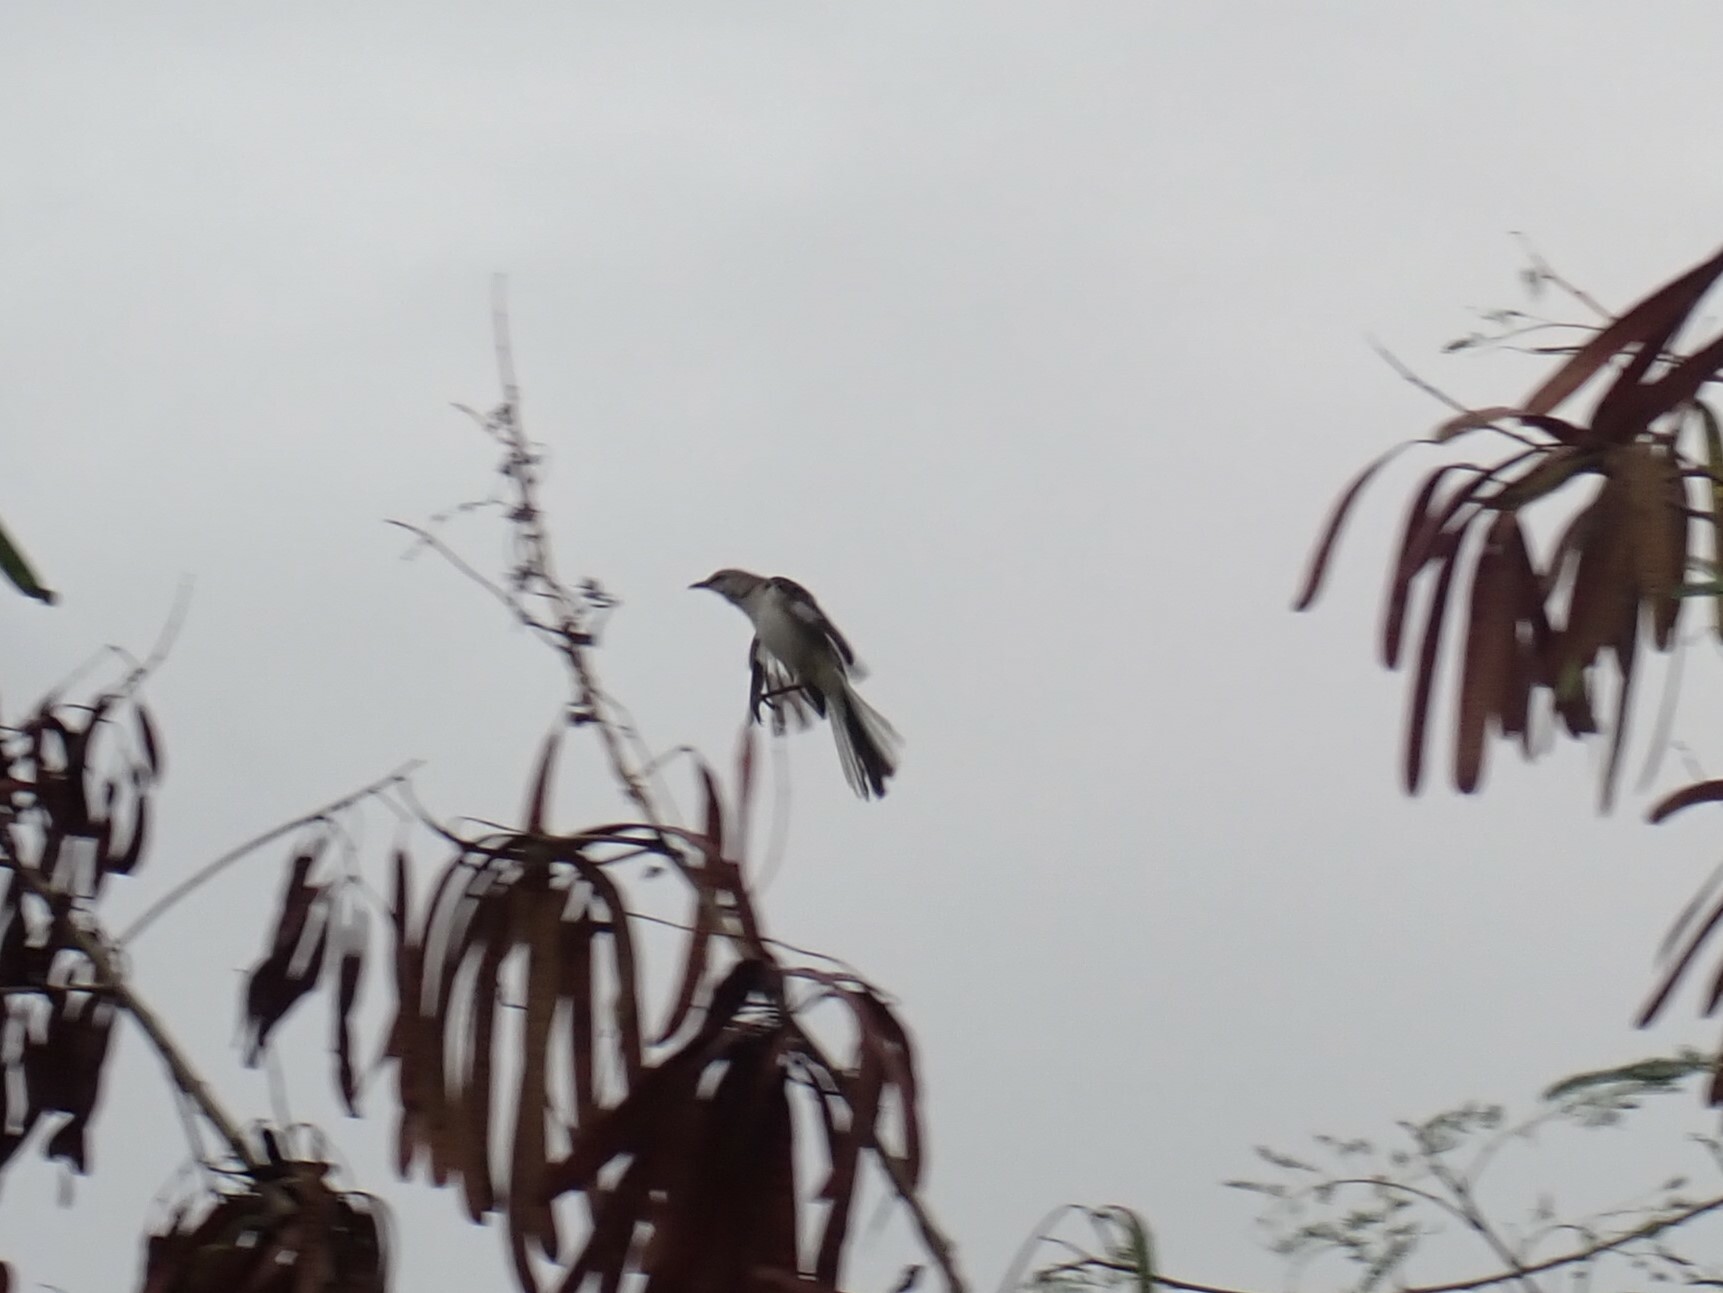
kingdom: Animalia
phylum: Chordata
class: Aves
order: Passeriformes
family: Mimidae
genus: Mimus
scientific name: Mimus polyglottos
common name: Northern mockingbird
